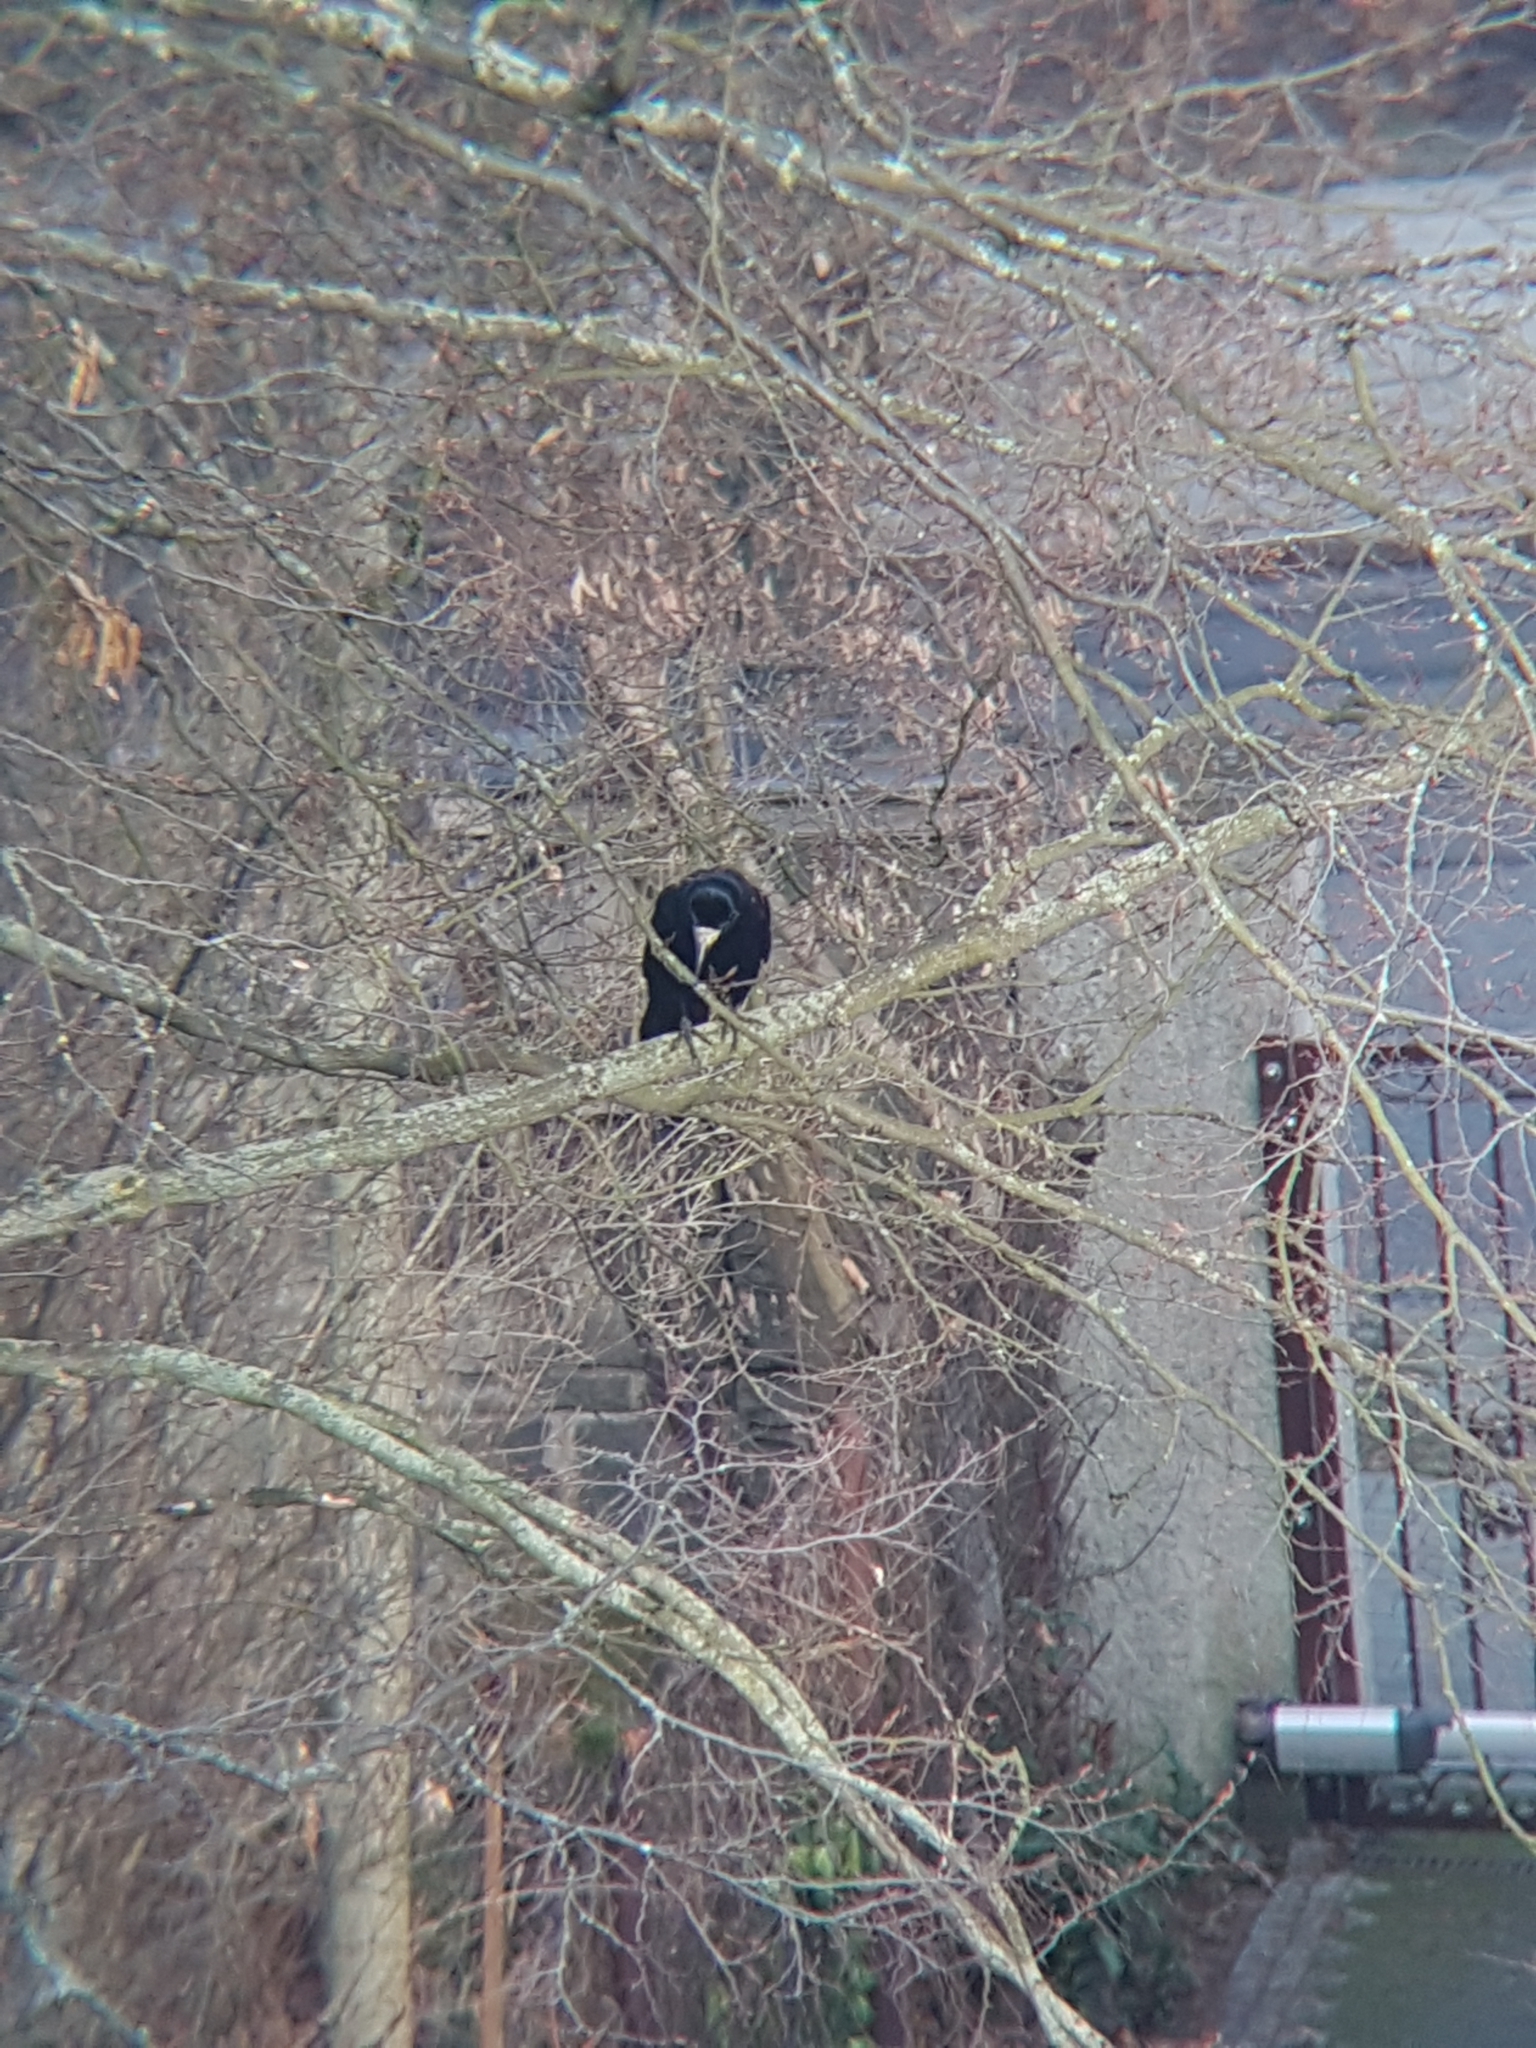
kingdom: Animalia
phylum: Chordata
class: Aves
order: Passeriformes
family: Corvidae
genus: Corvus
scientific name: Corvus frugilegus
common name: Rook
